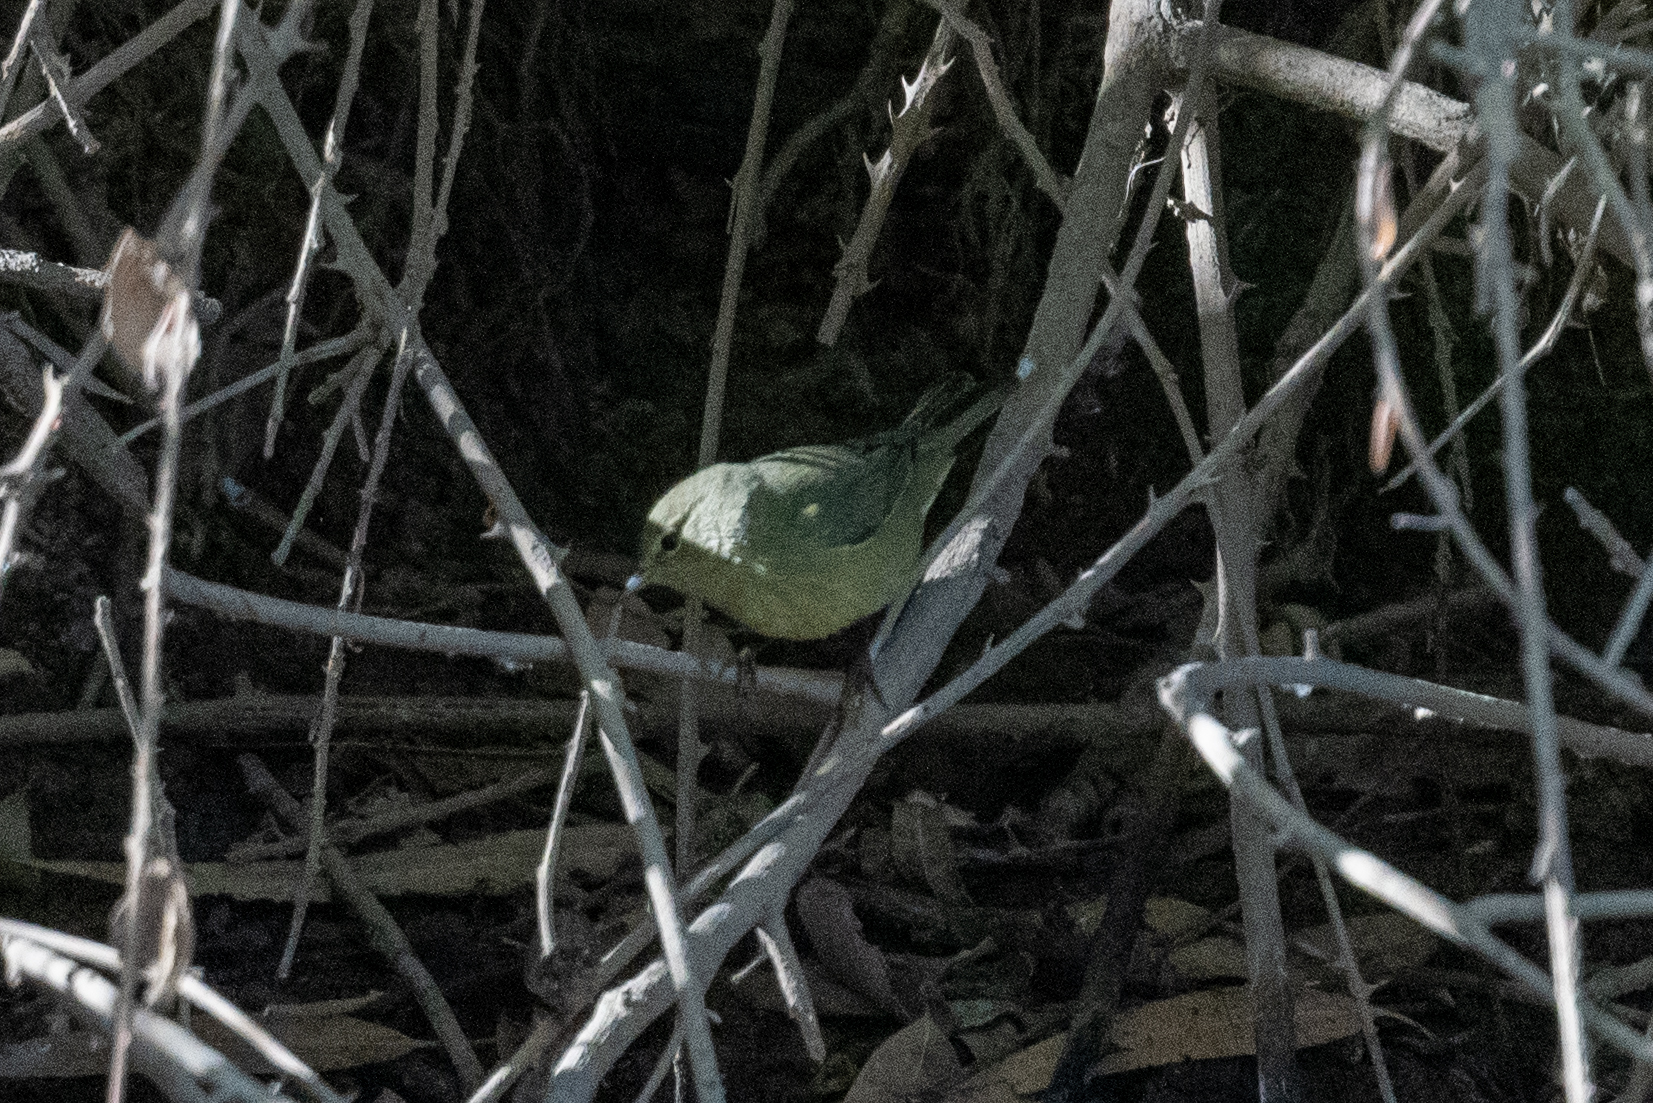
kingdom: Animalia
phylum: Chordata
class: Aves
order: Passeriformes
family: Parulidae
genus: Leiothlypis
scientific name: Leiothlypis celata
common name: Orange-crowned warbler
